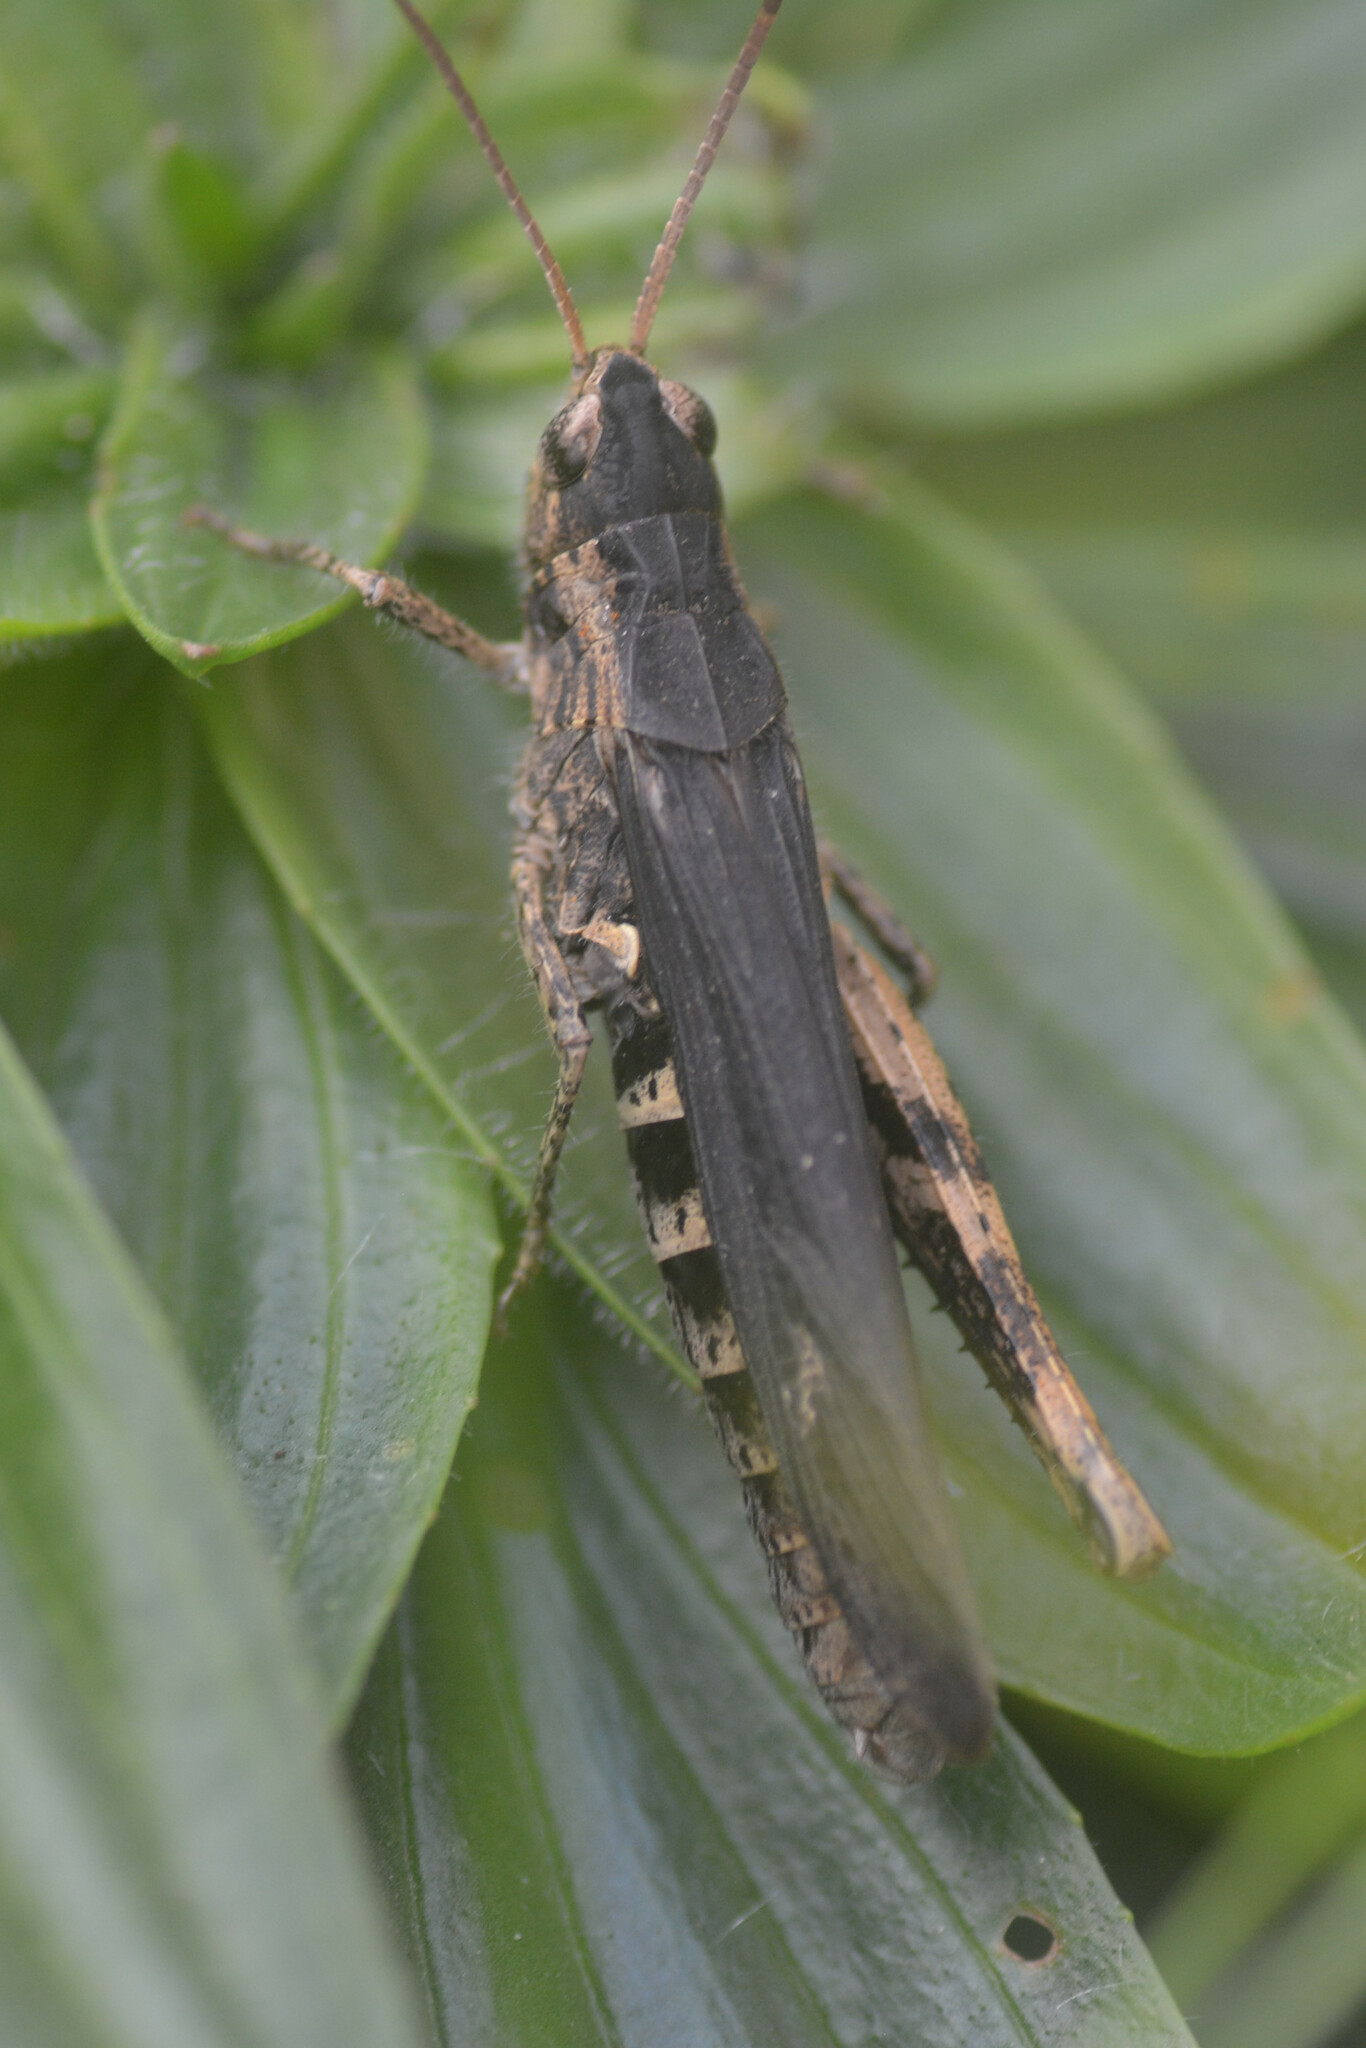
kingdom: Animalia
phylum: Arthropoda
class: Insecta
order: Orthoptera
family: Acrididae
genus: Chorthippus
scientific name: Chorthippus brunneus
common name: Field grasshopper
